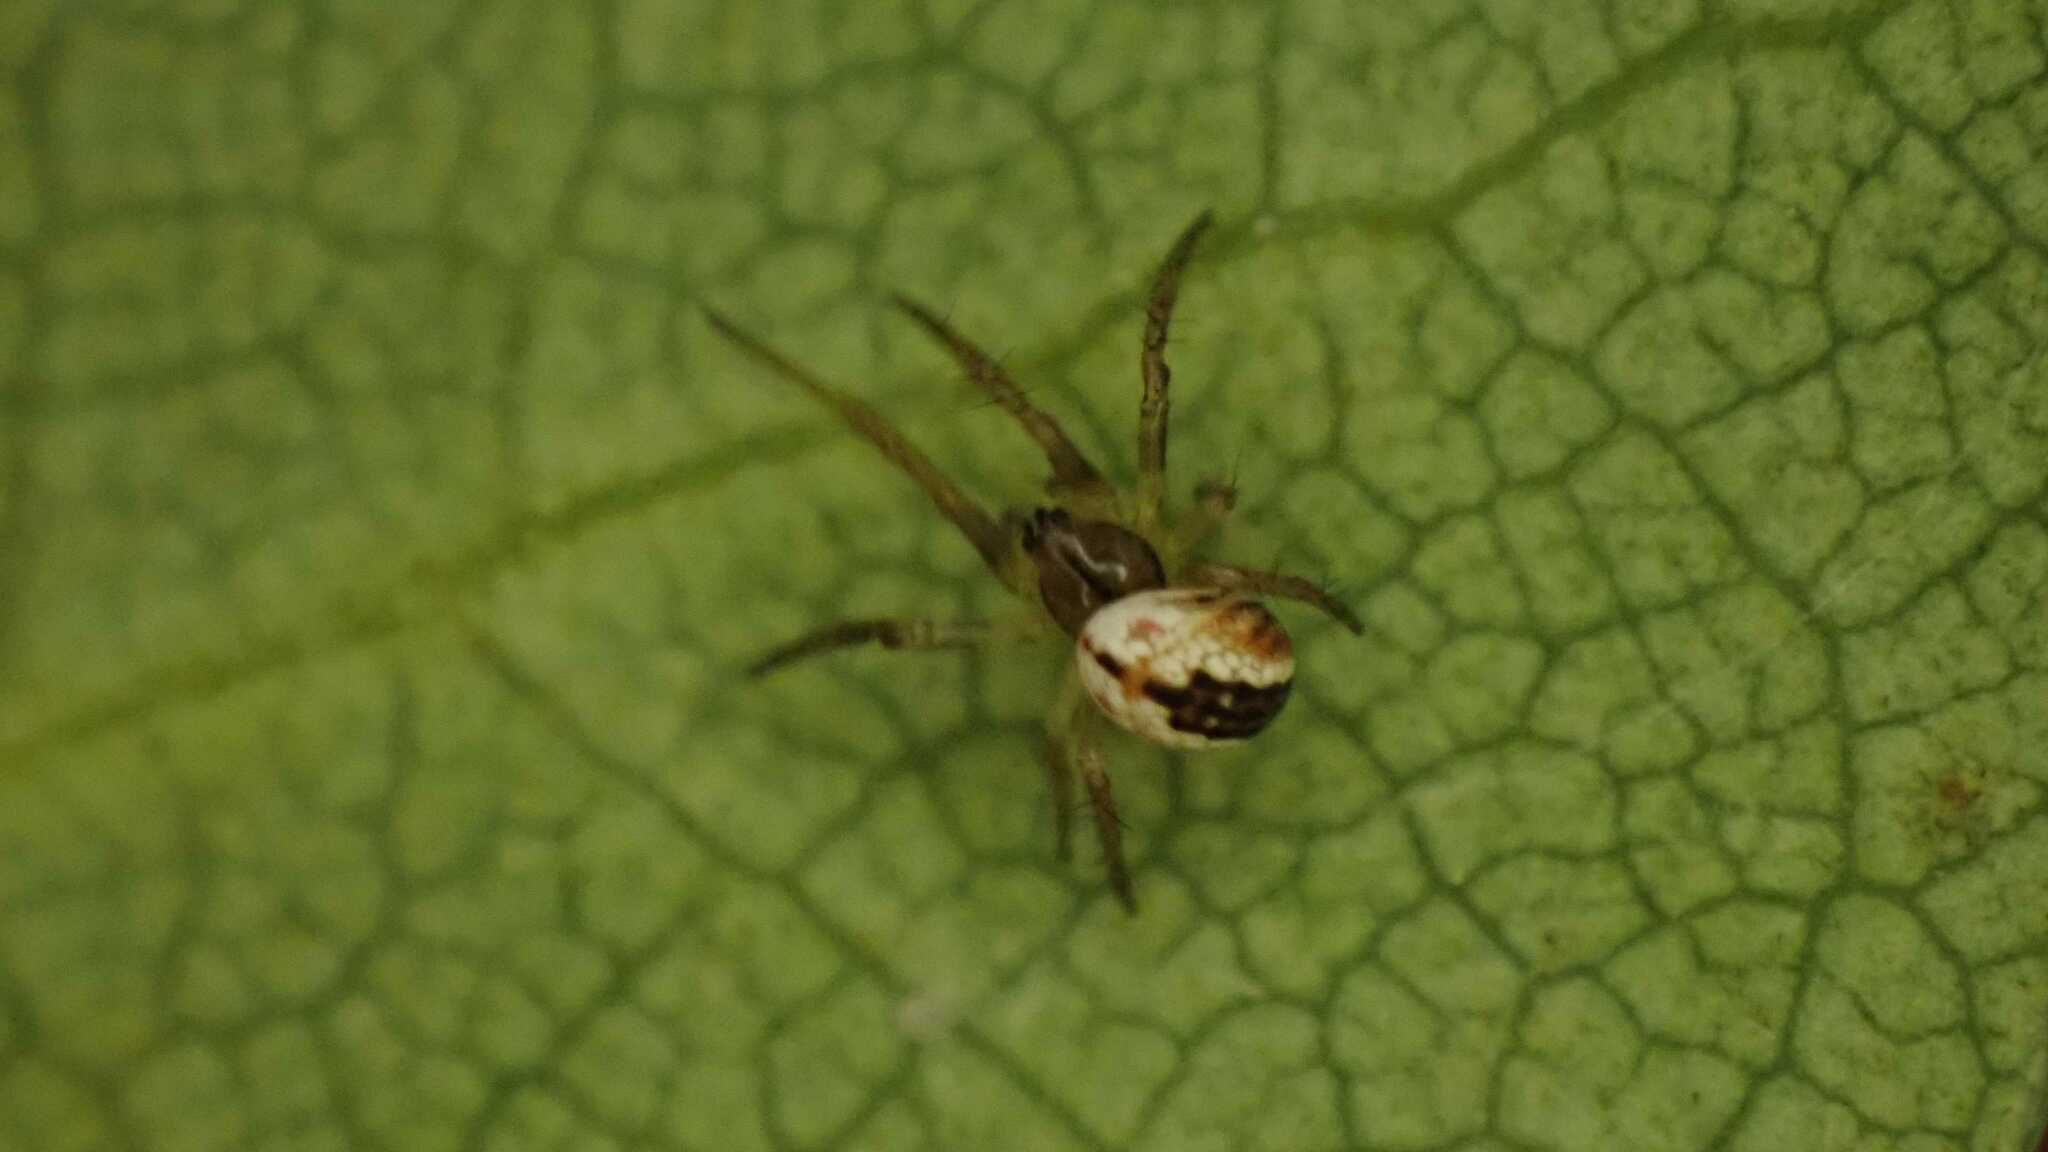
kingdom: Animalia
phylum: Arthropoda
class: Arachnida
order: Araneae
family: Araneidae
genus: Mangora
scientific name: Mangora acalypha
